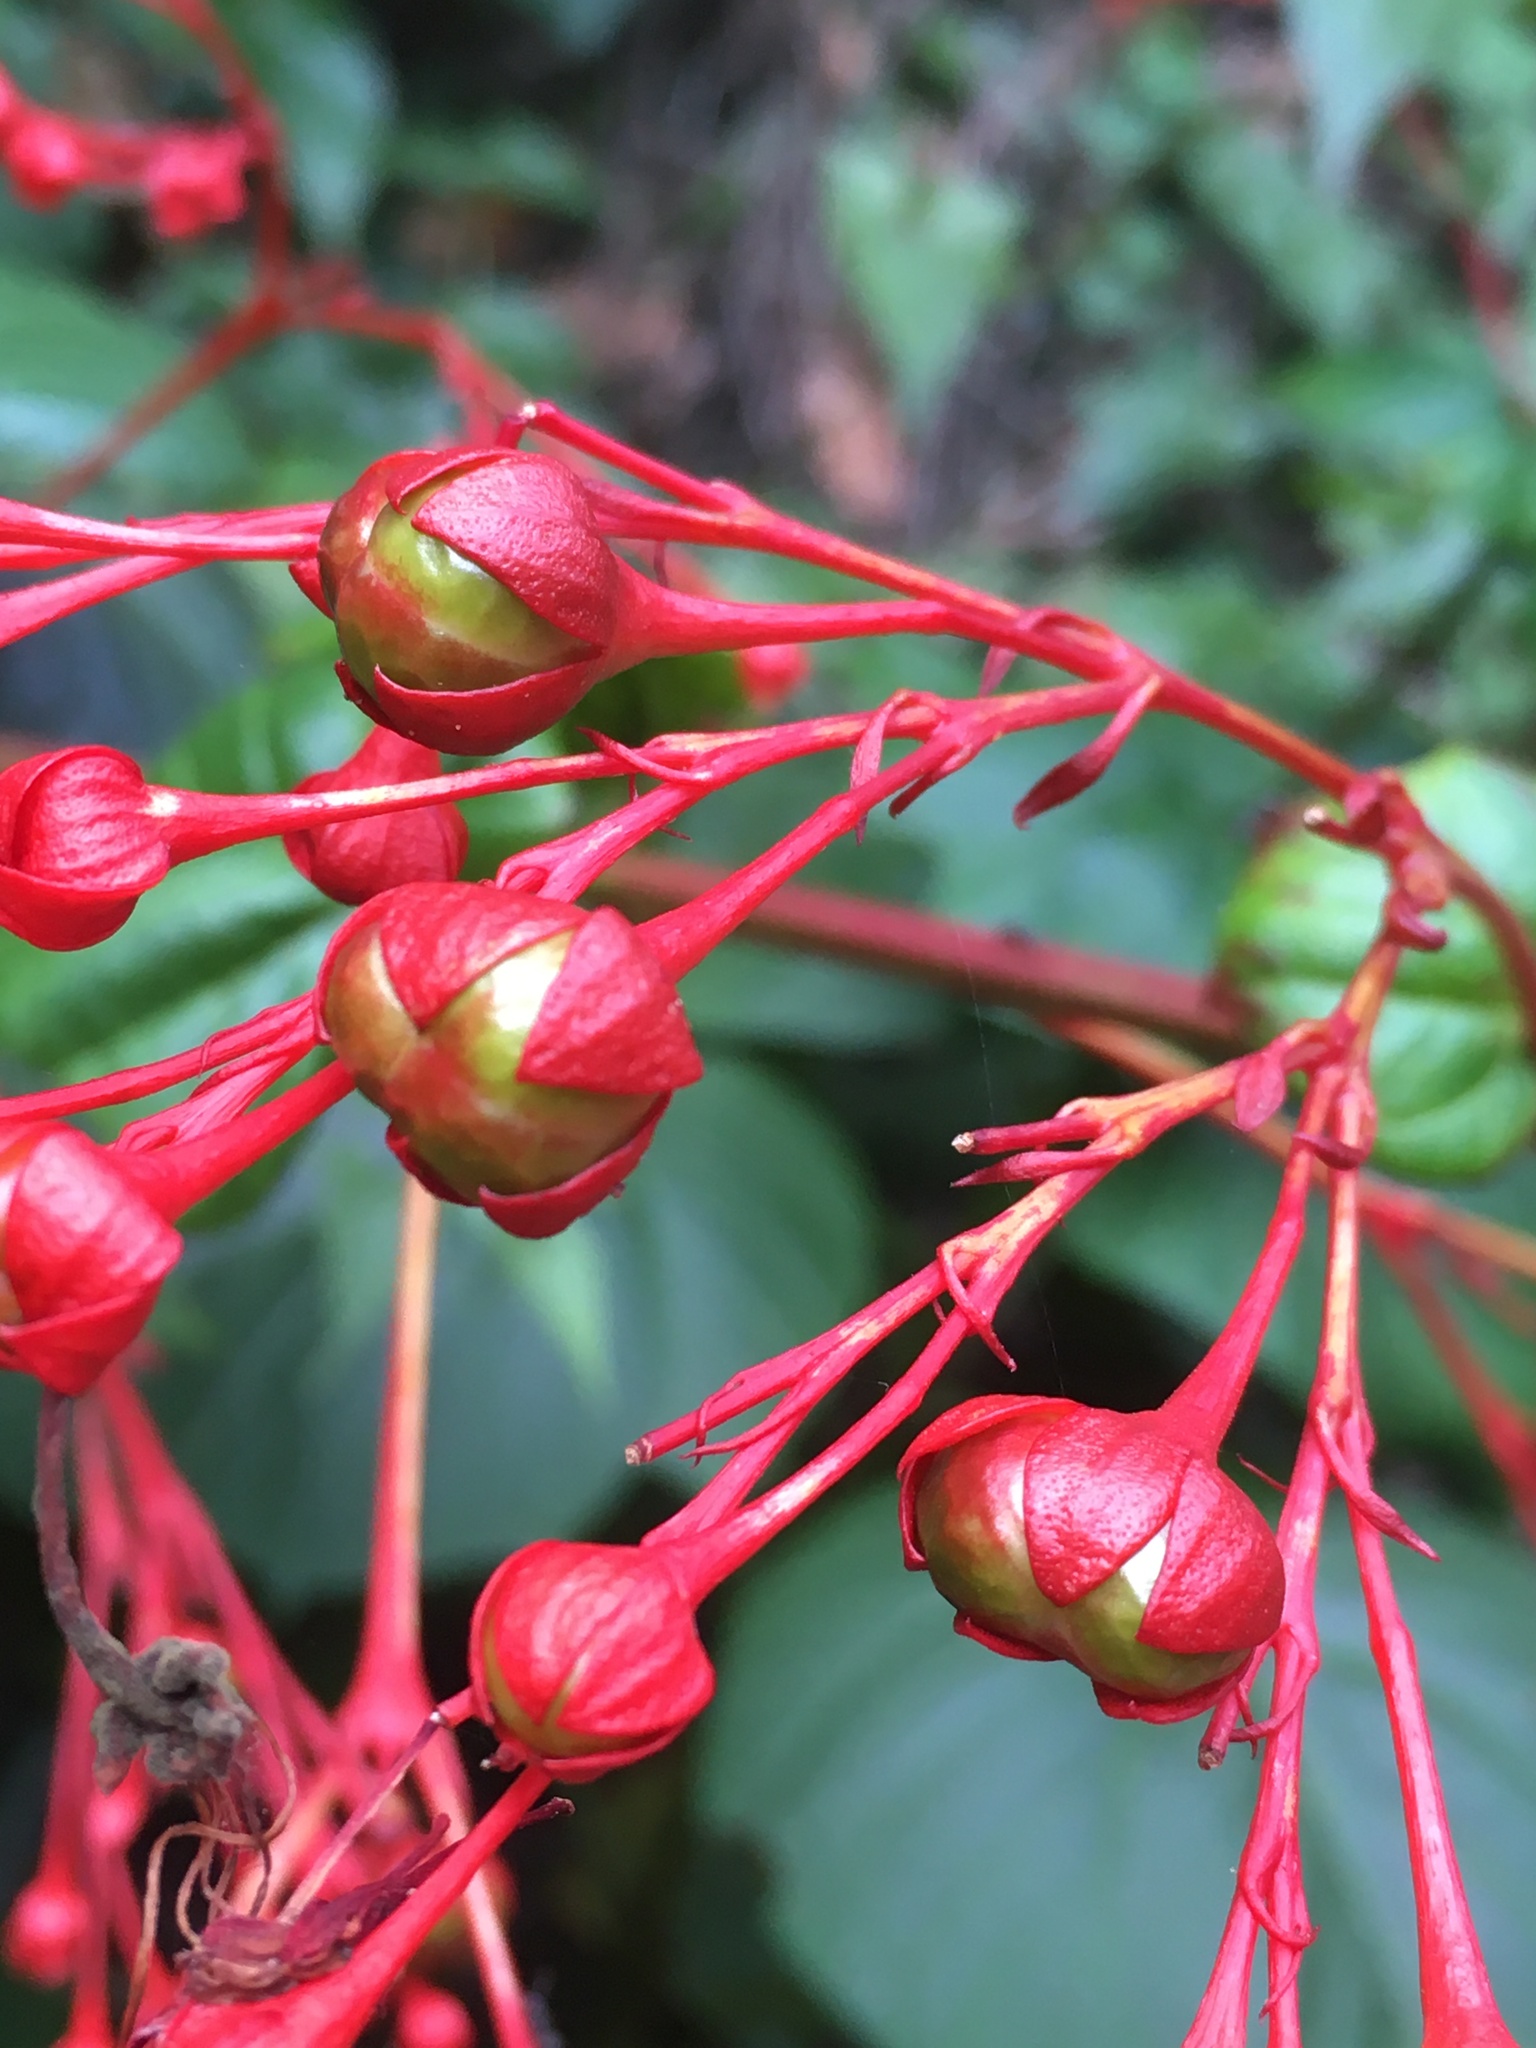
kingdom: Plantae
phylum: Tracheophyta
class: Magnoliopsida
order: Lamiales
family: Lamiaceae
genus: Clerodendrum
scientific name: Clerodendrum japonicum
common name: Japanese glorybower
